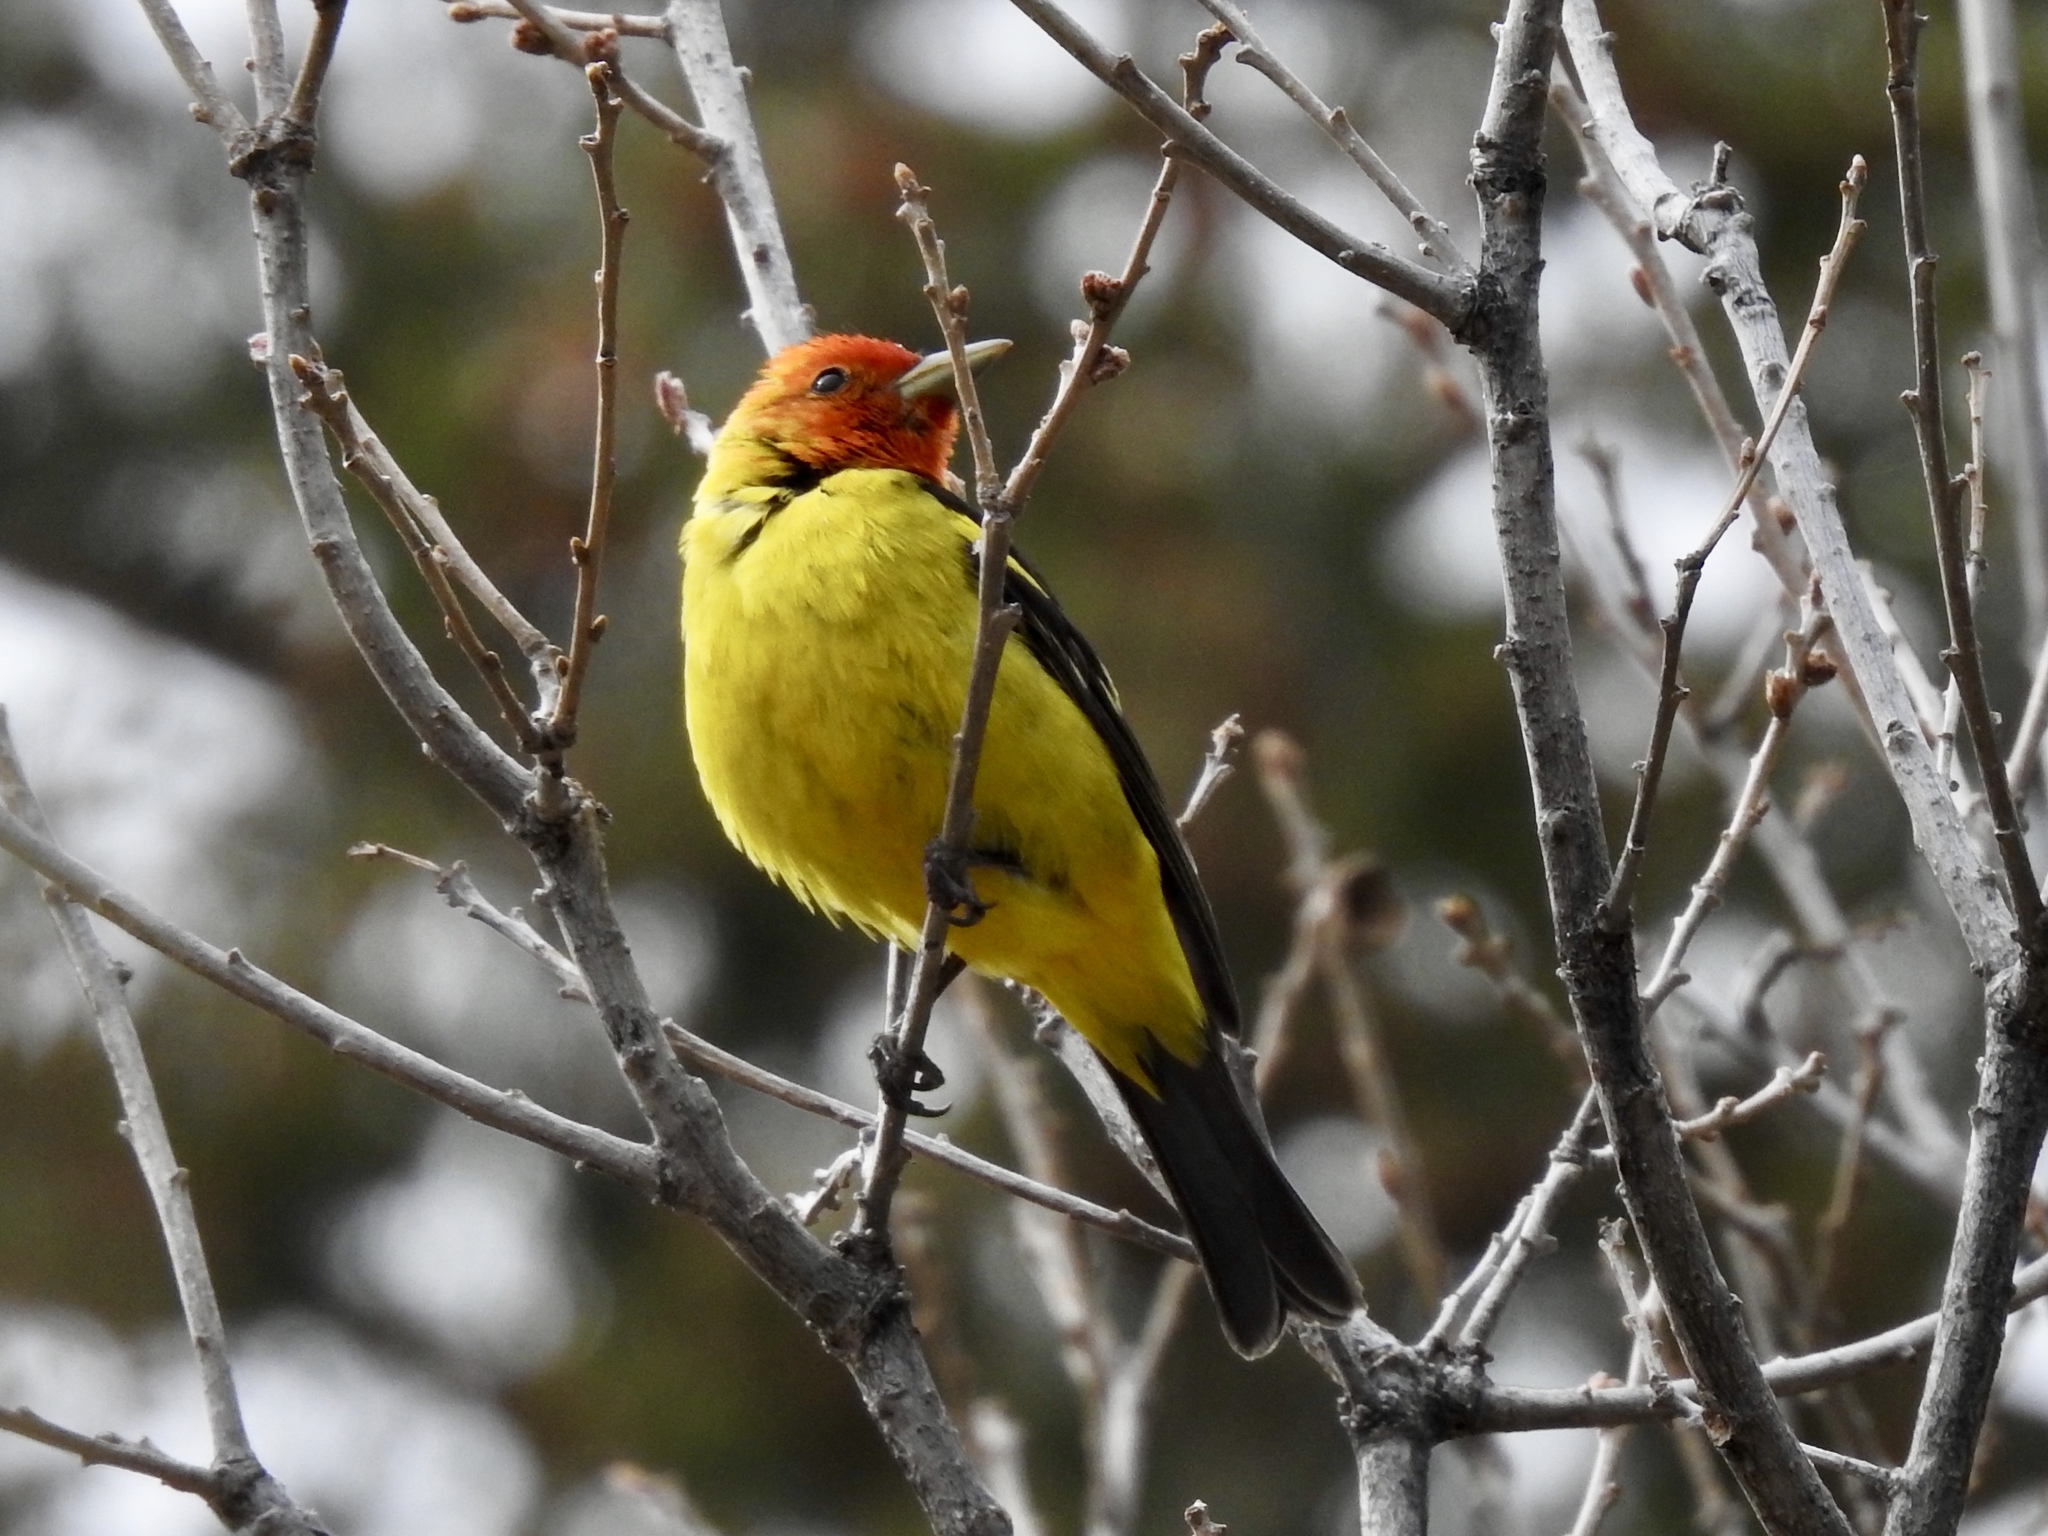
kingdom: Animalia
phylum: Chordata
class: Aves
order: Passeriformes
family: Cardinalidae
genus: Piranga
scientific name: Piranga ludoviciana
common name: Western tanager
